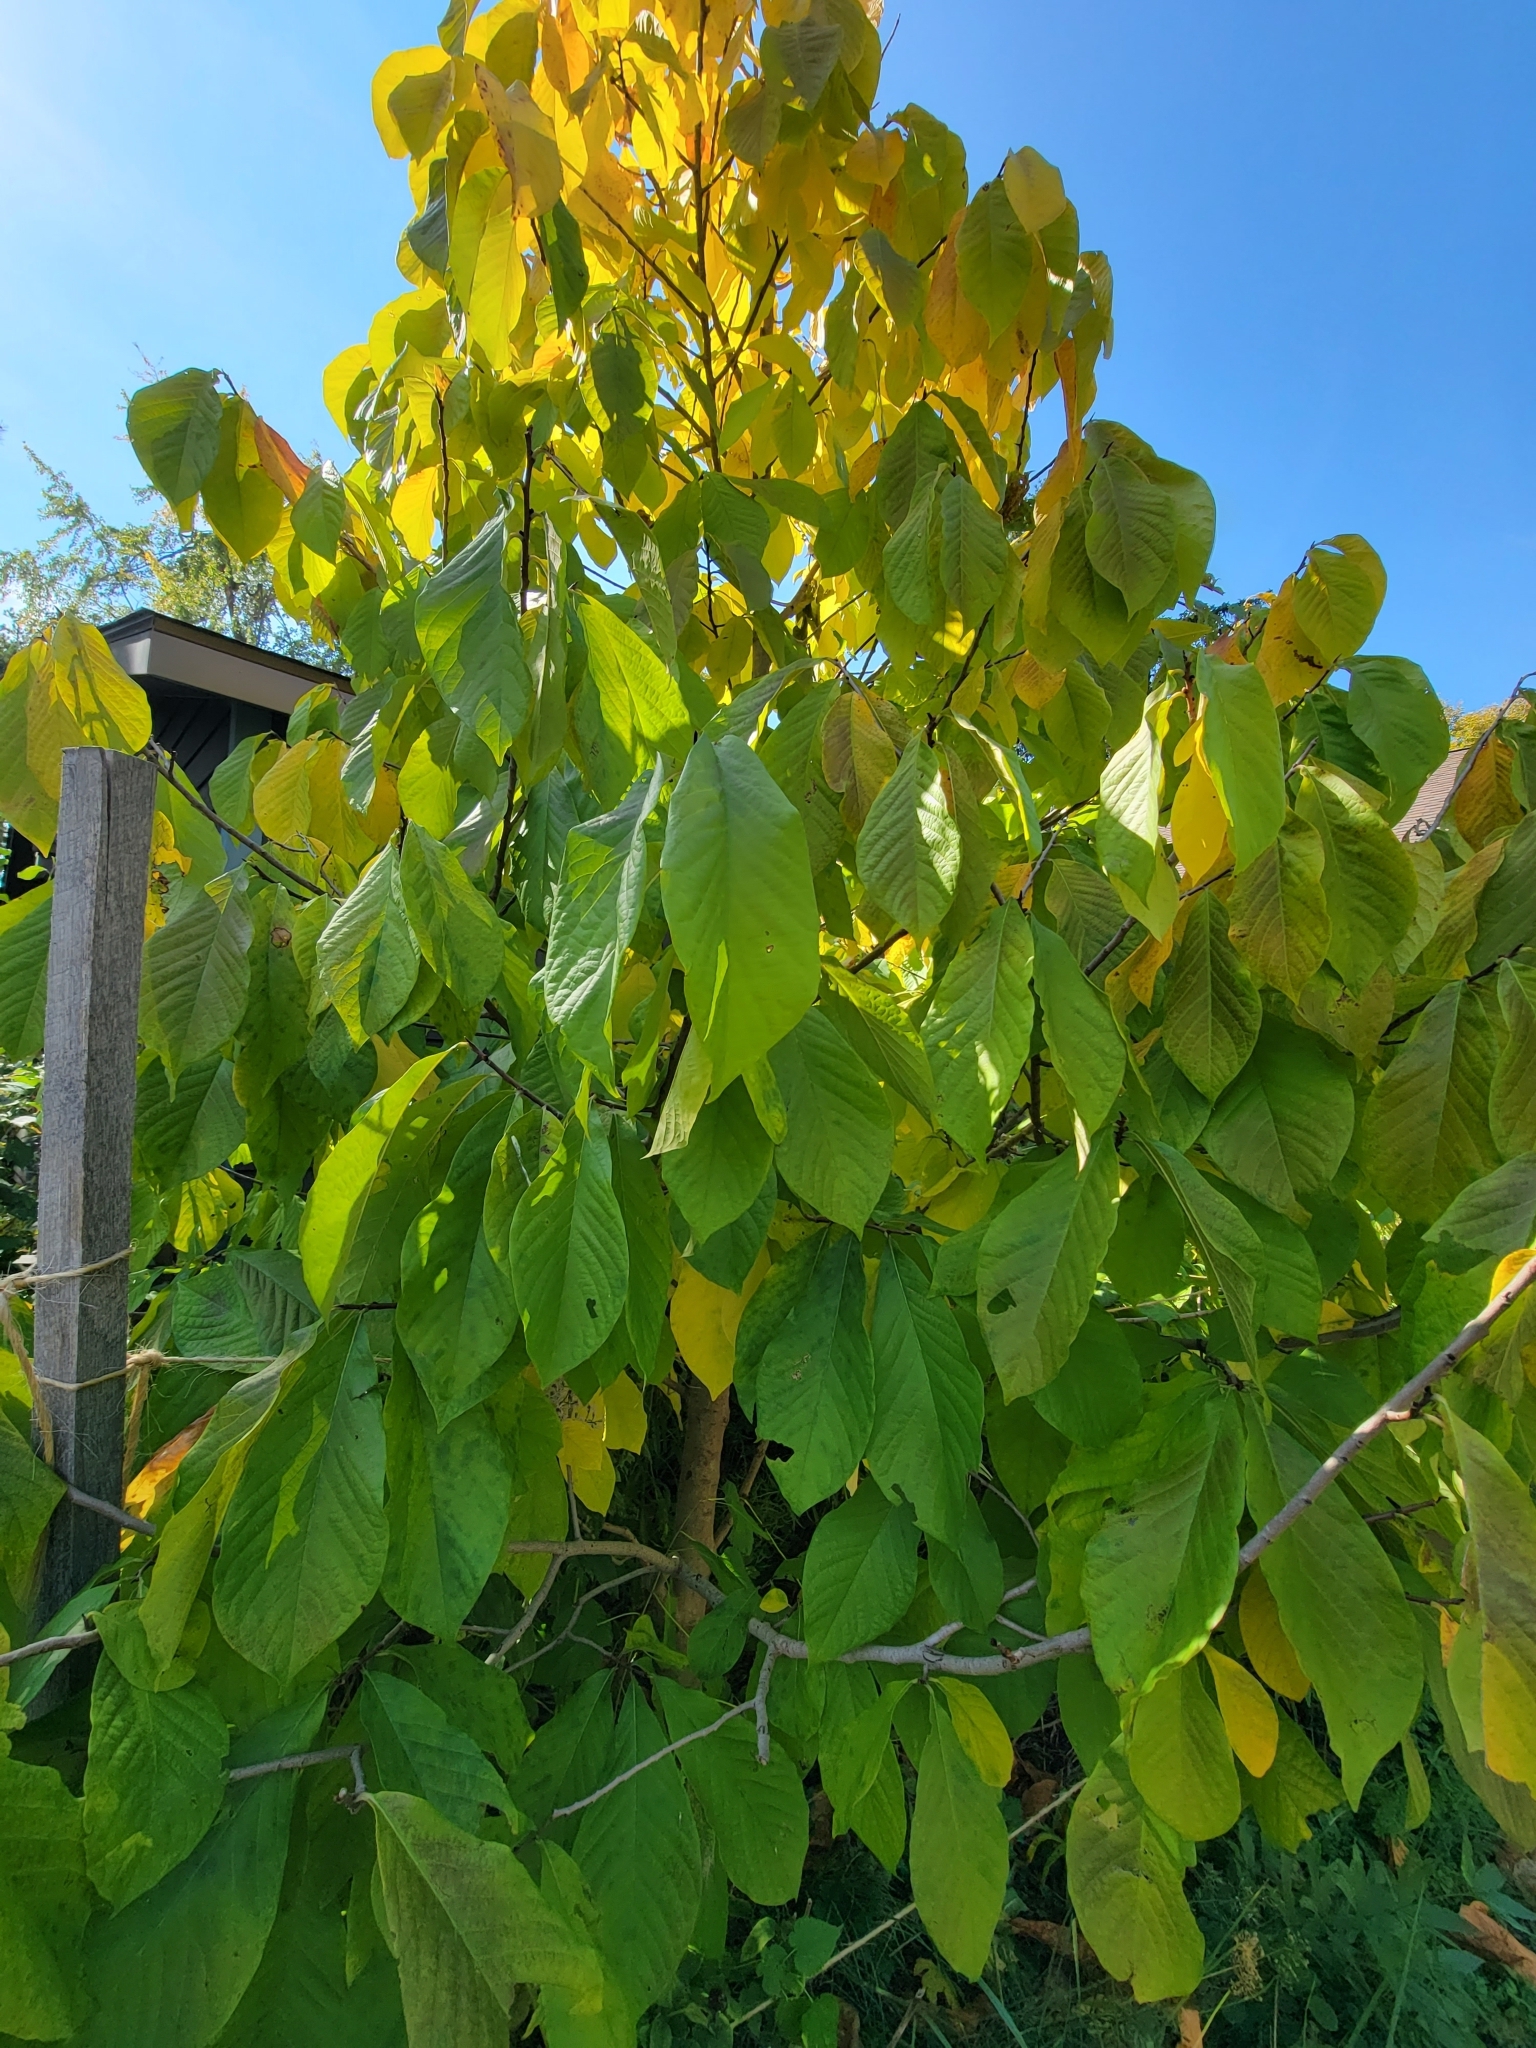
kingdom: Plantae
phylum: Tracheophyta
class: Magnoliopsida
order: Magnoliales
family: Annonaceae
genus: Asimina
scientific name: Asimina triloba
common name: Dog-banana
